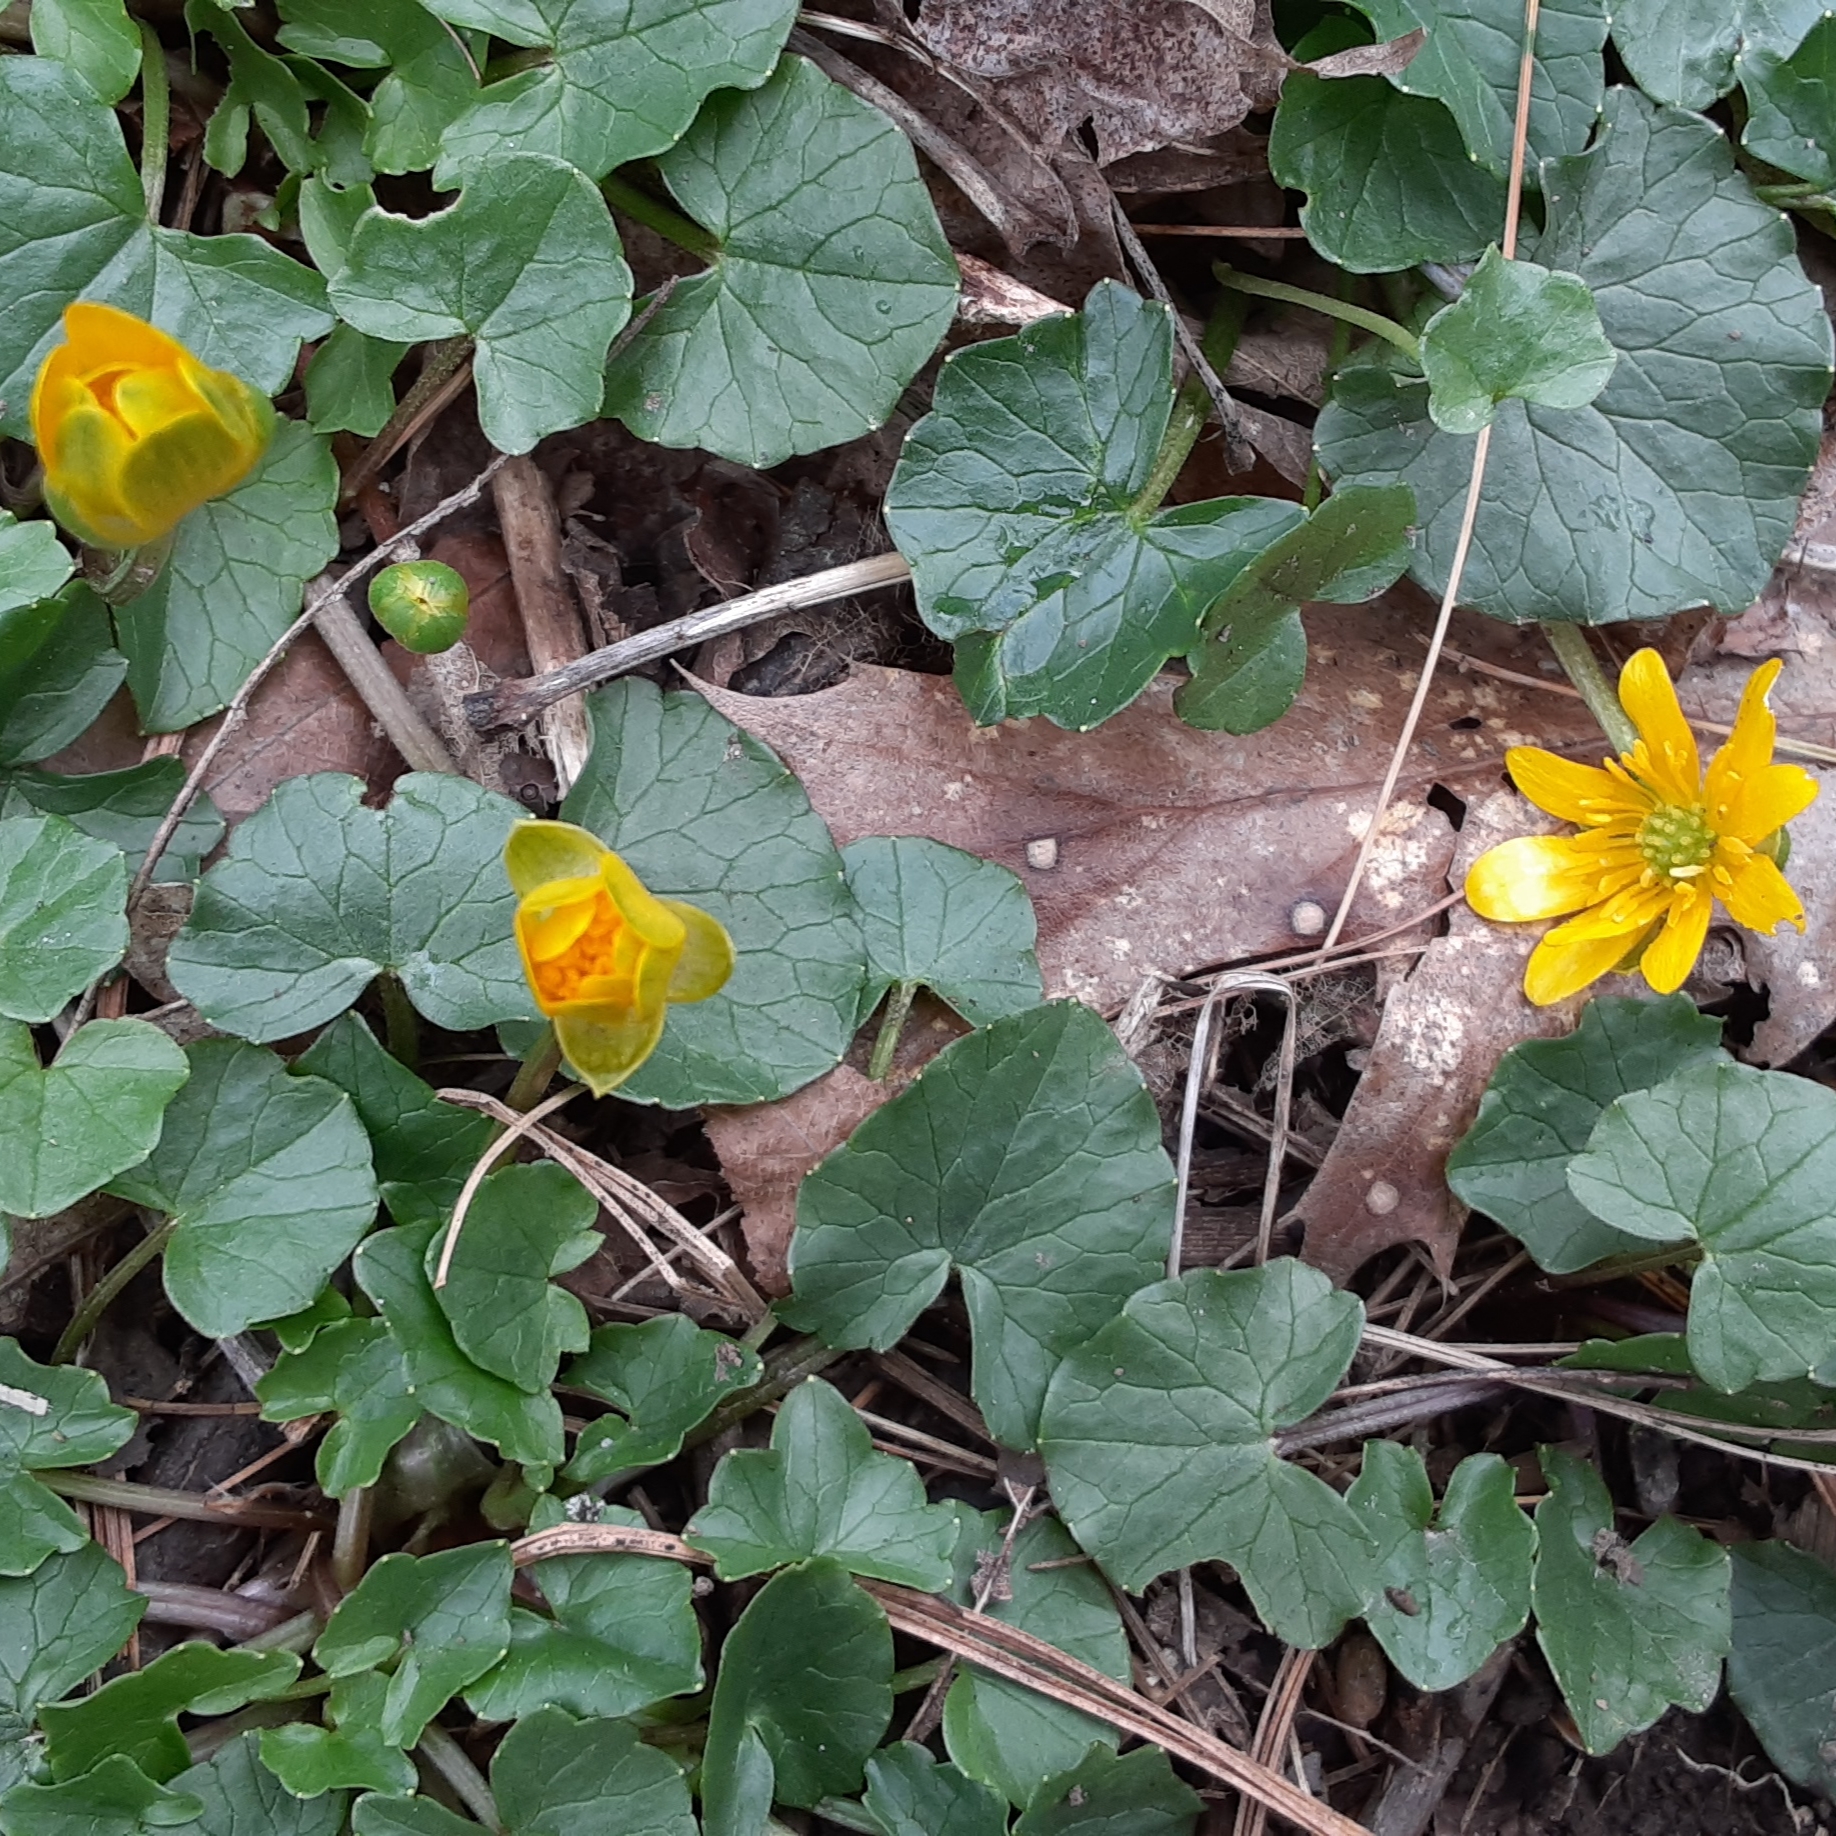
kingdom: Plantae
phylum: Tracheophyta
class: Magnoliopsida
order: Ranunculales
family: Ranunculaceae
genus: Ficaria
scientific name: Ficaria verna
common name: Lesser celandine
